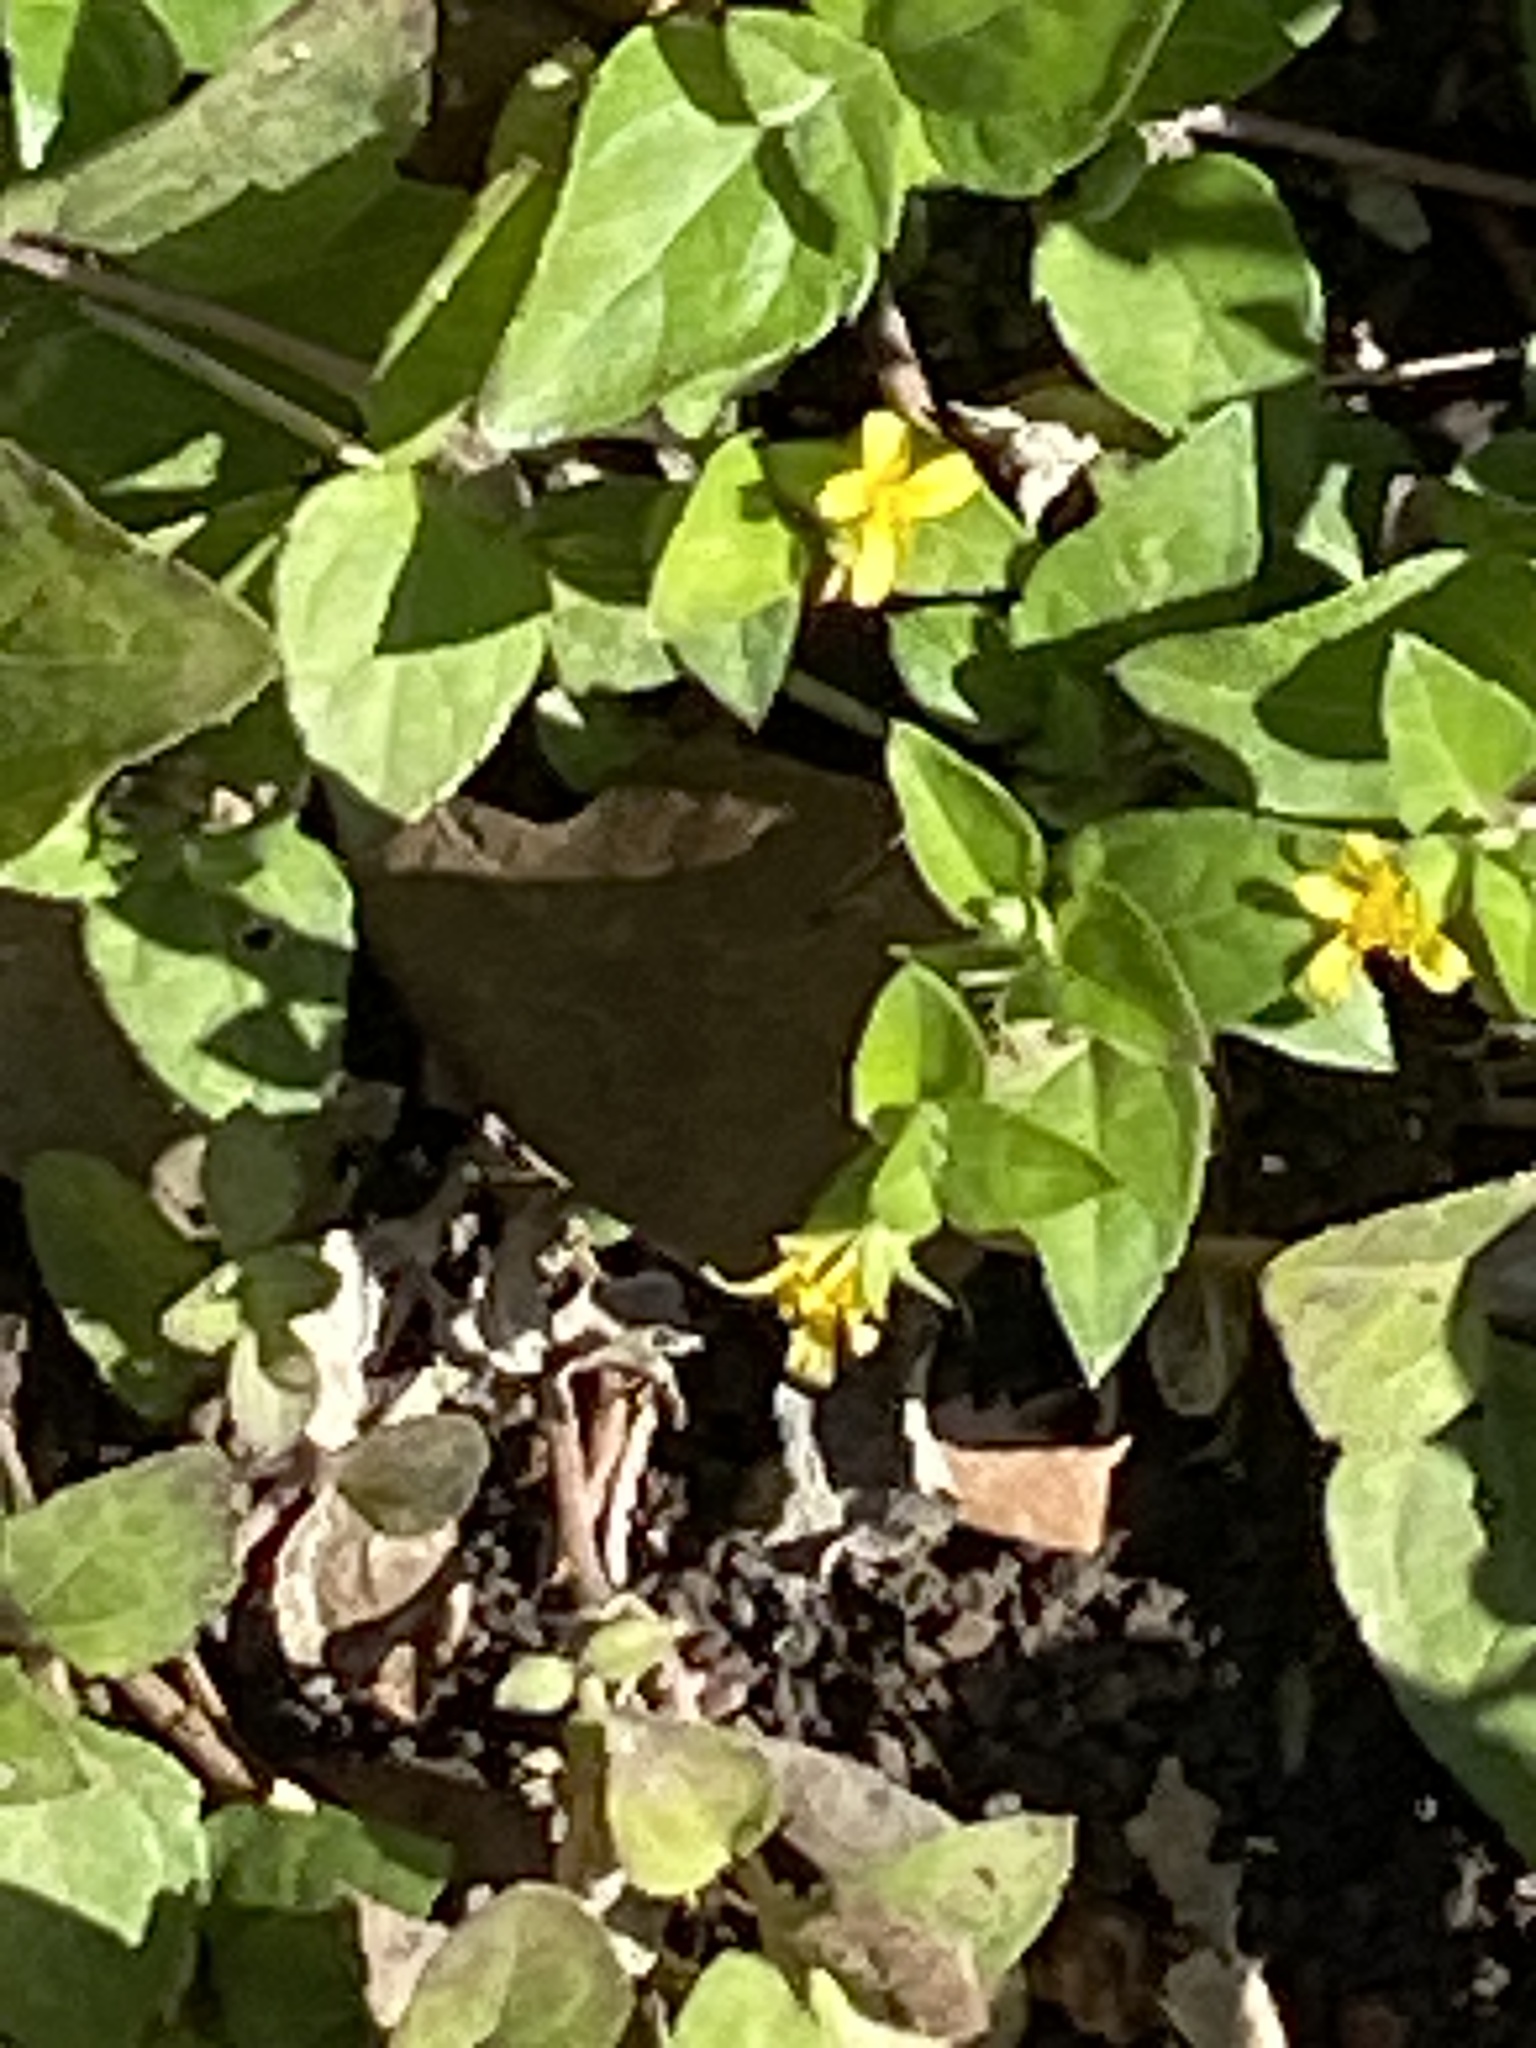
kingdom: Plantae
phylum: Tracheophyta
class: Magnoliopsida
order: Asterales
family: Asteraceae
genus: Calyptocarpus
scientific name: Calyptocarpus vialis
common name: Straggler daisy
